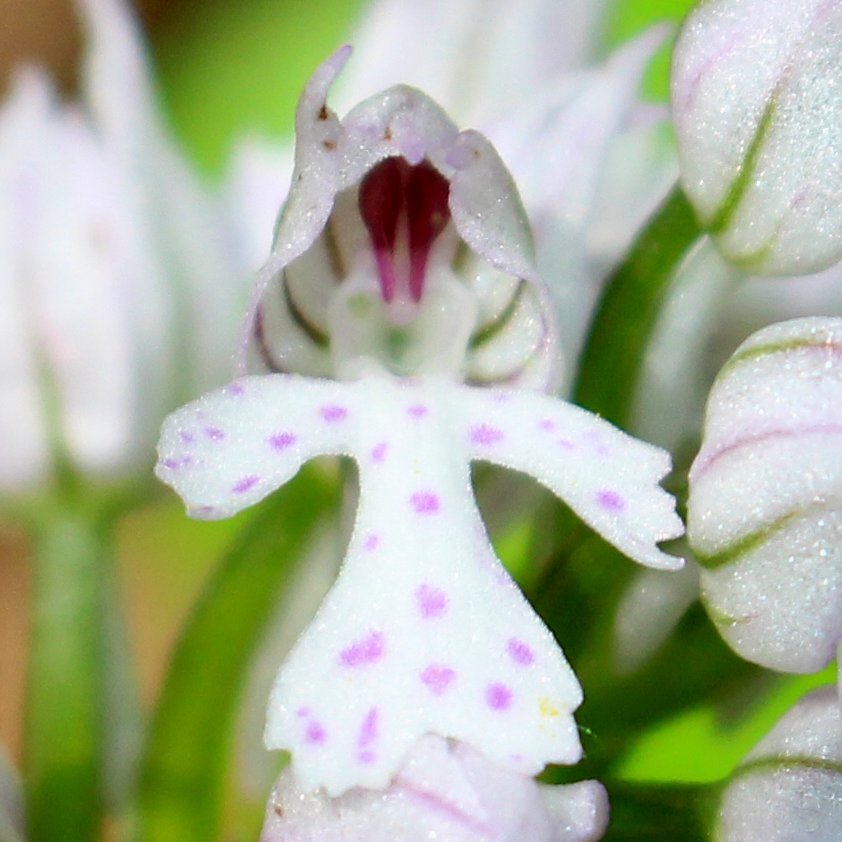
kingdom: Plantae
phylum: Tracheophyta
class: Liliopsida
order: Asparagales
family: Orchidaceae
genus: Neotinea
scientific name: Neotinea tridentata
